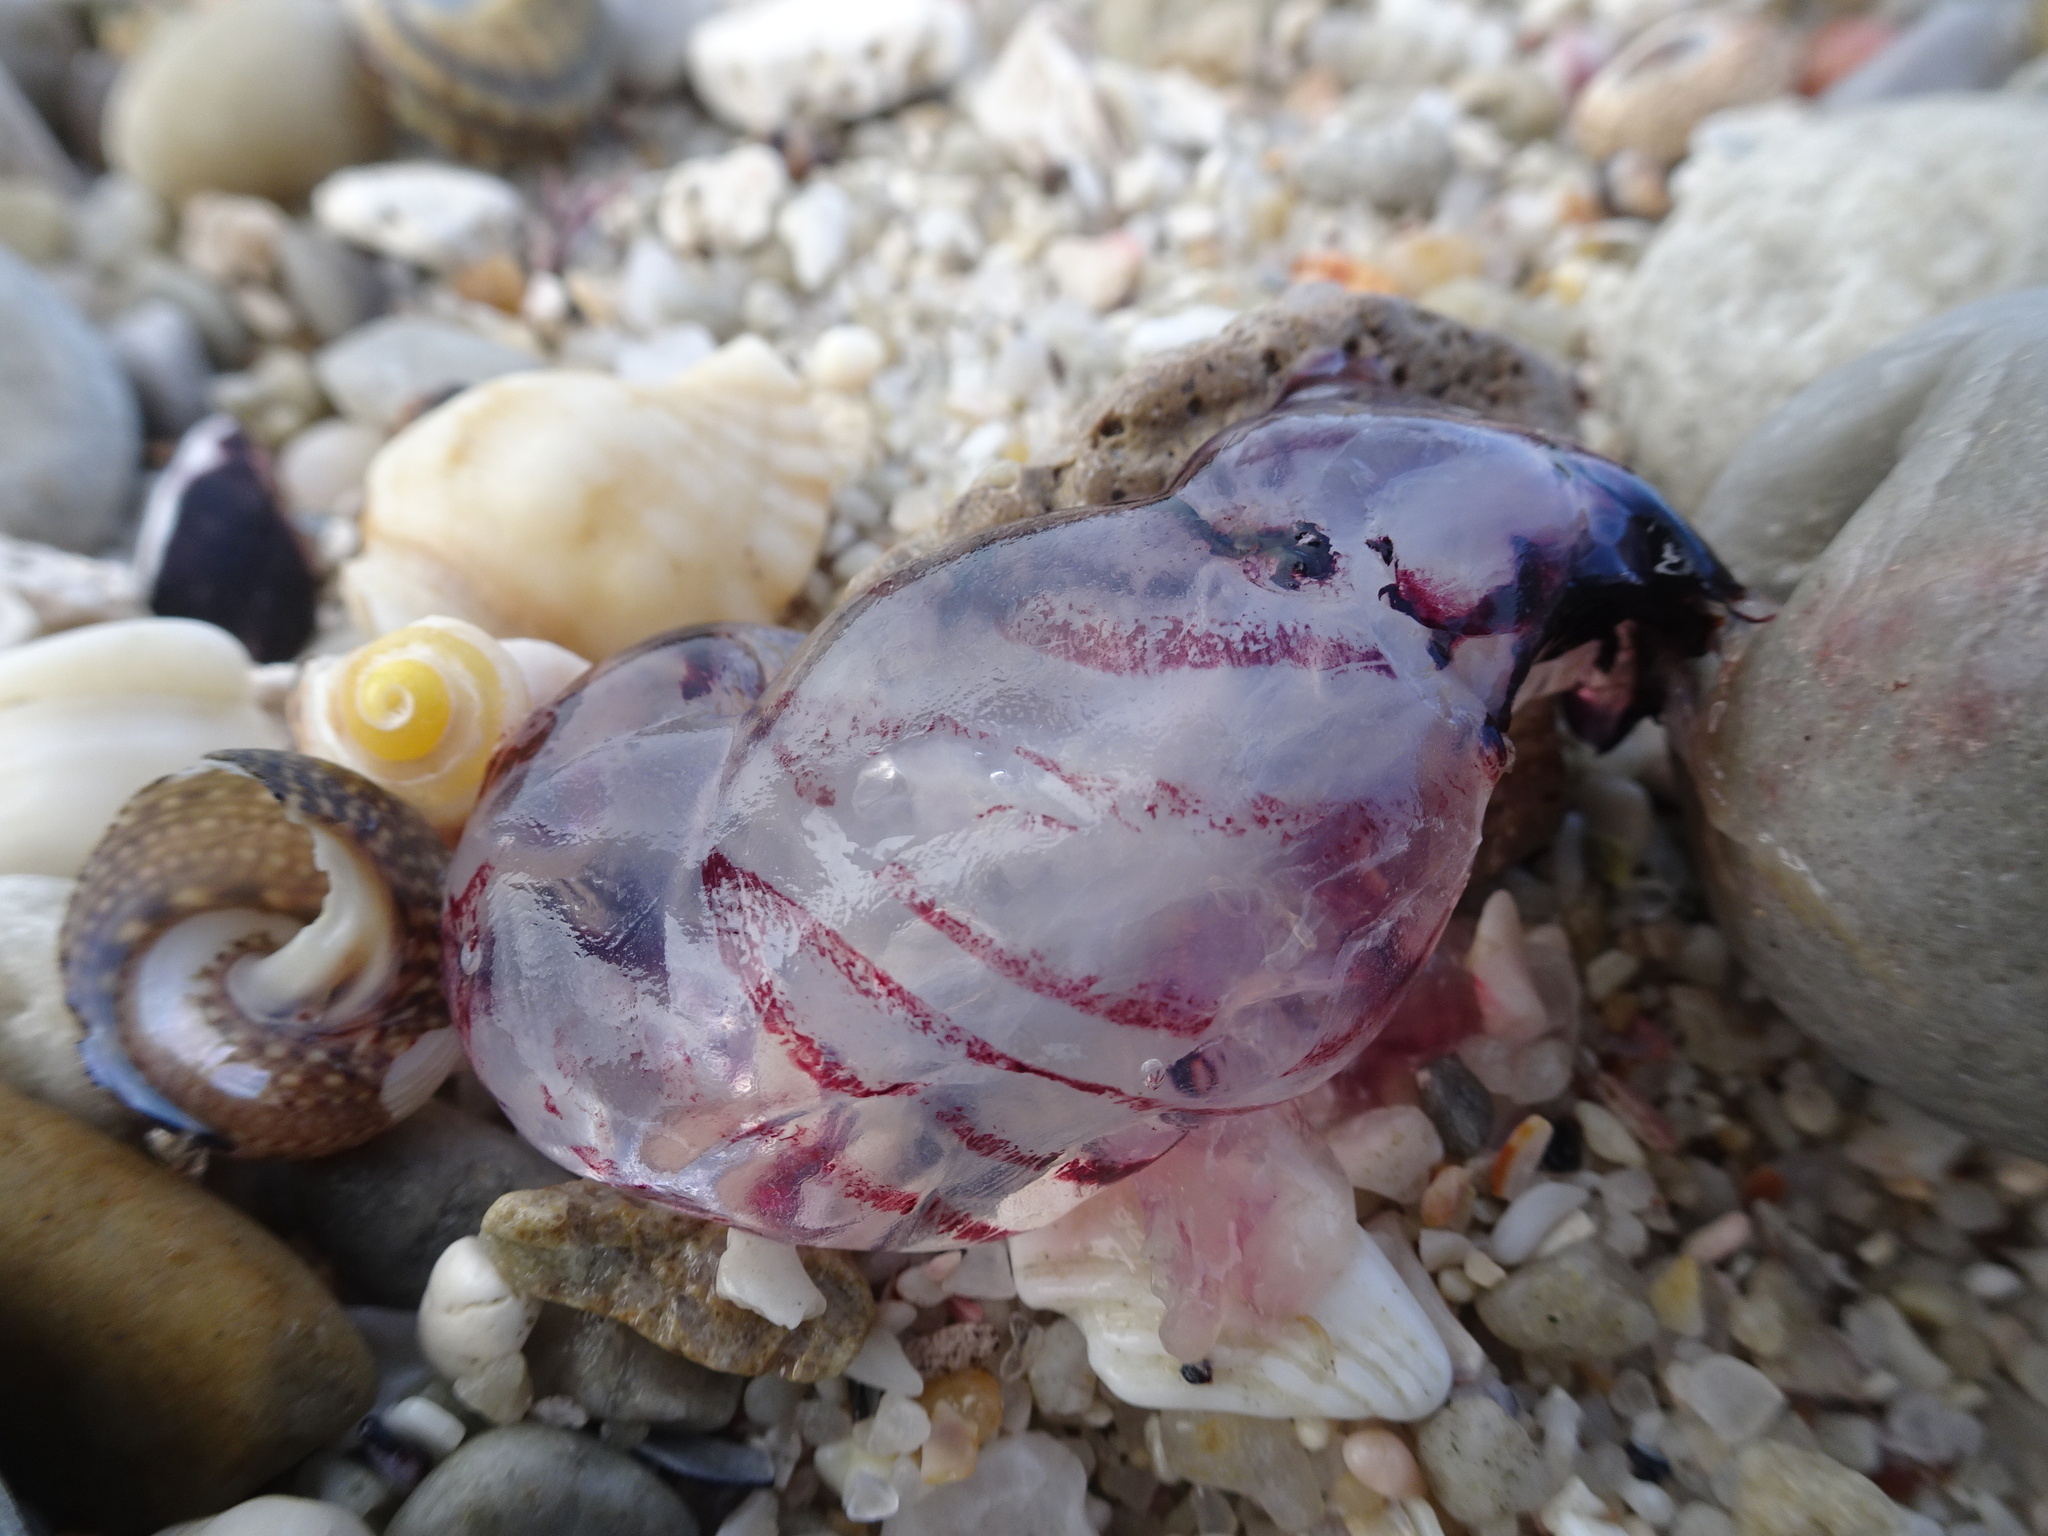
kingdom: Animalia
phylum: Cnidaria
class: Scyphozoa
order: Semaeostomeae
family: Pelagiidae
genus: Chrysaora
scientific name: Chrysaora agulhensis
